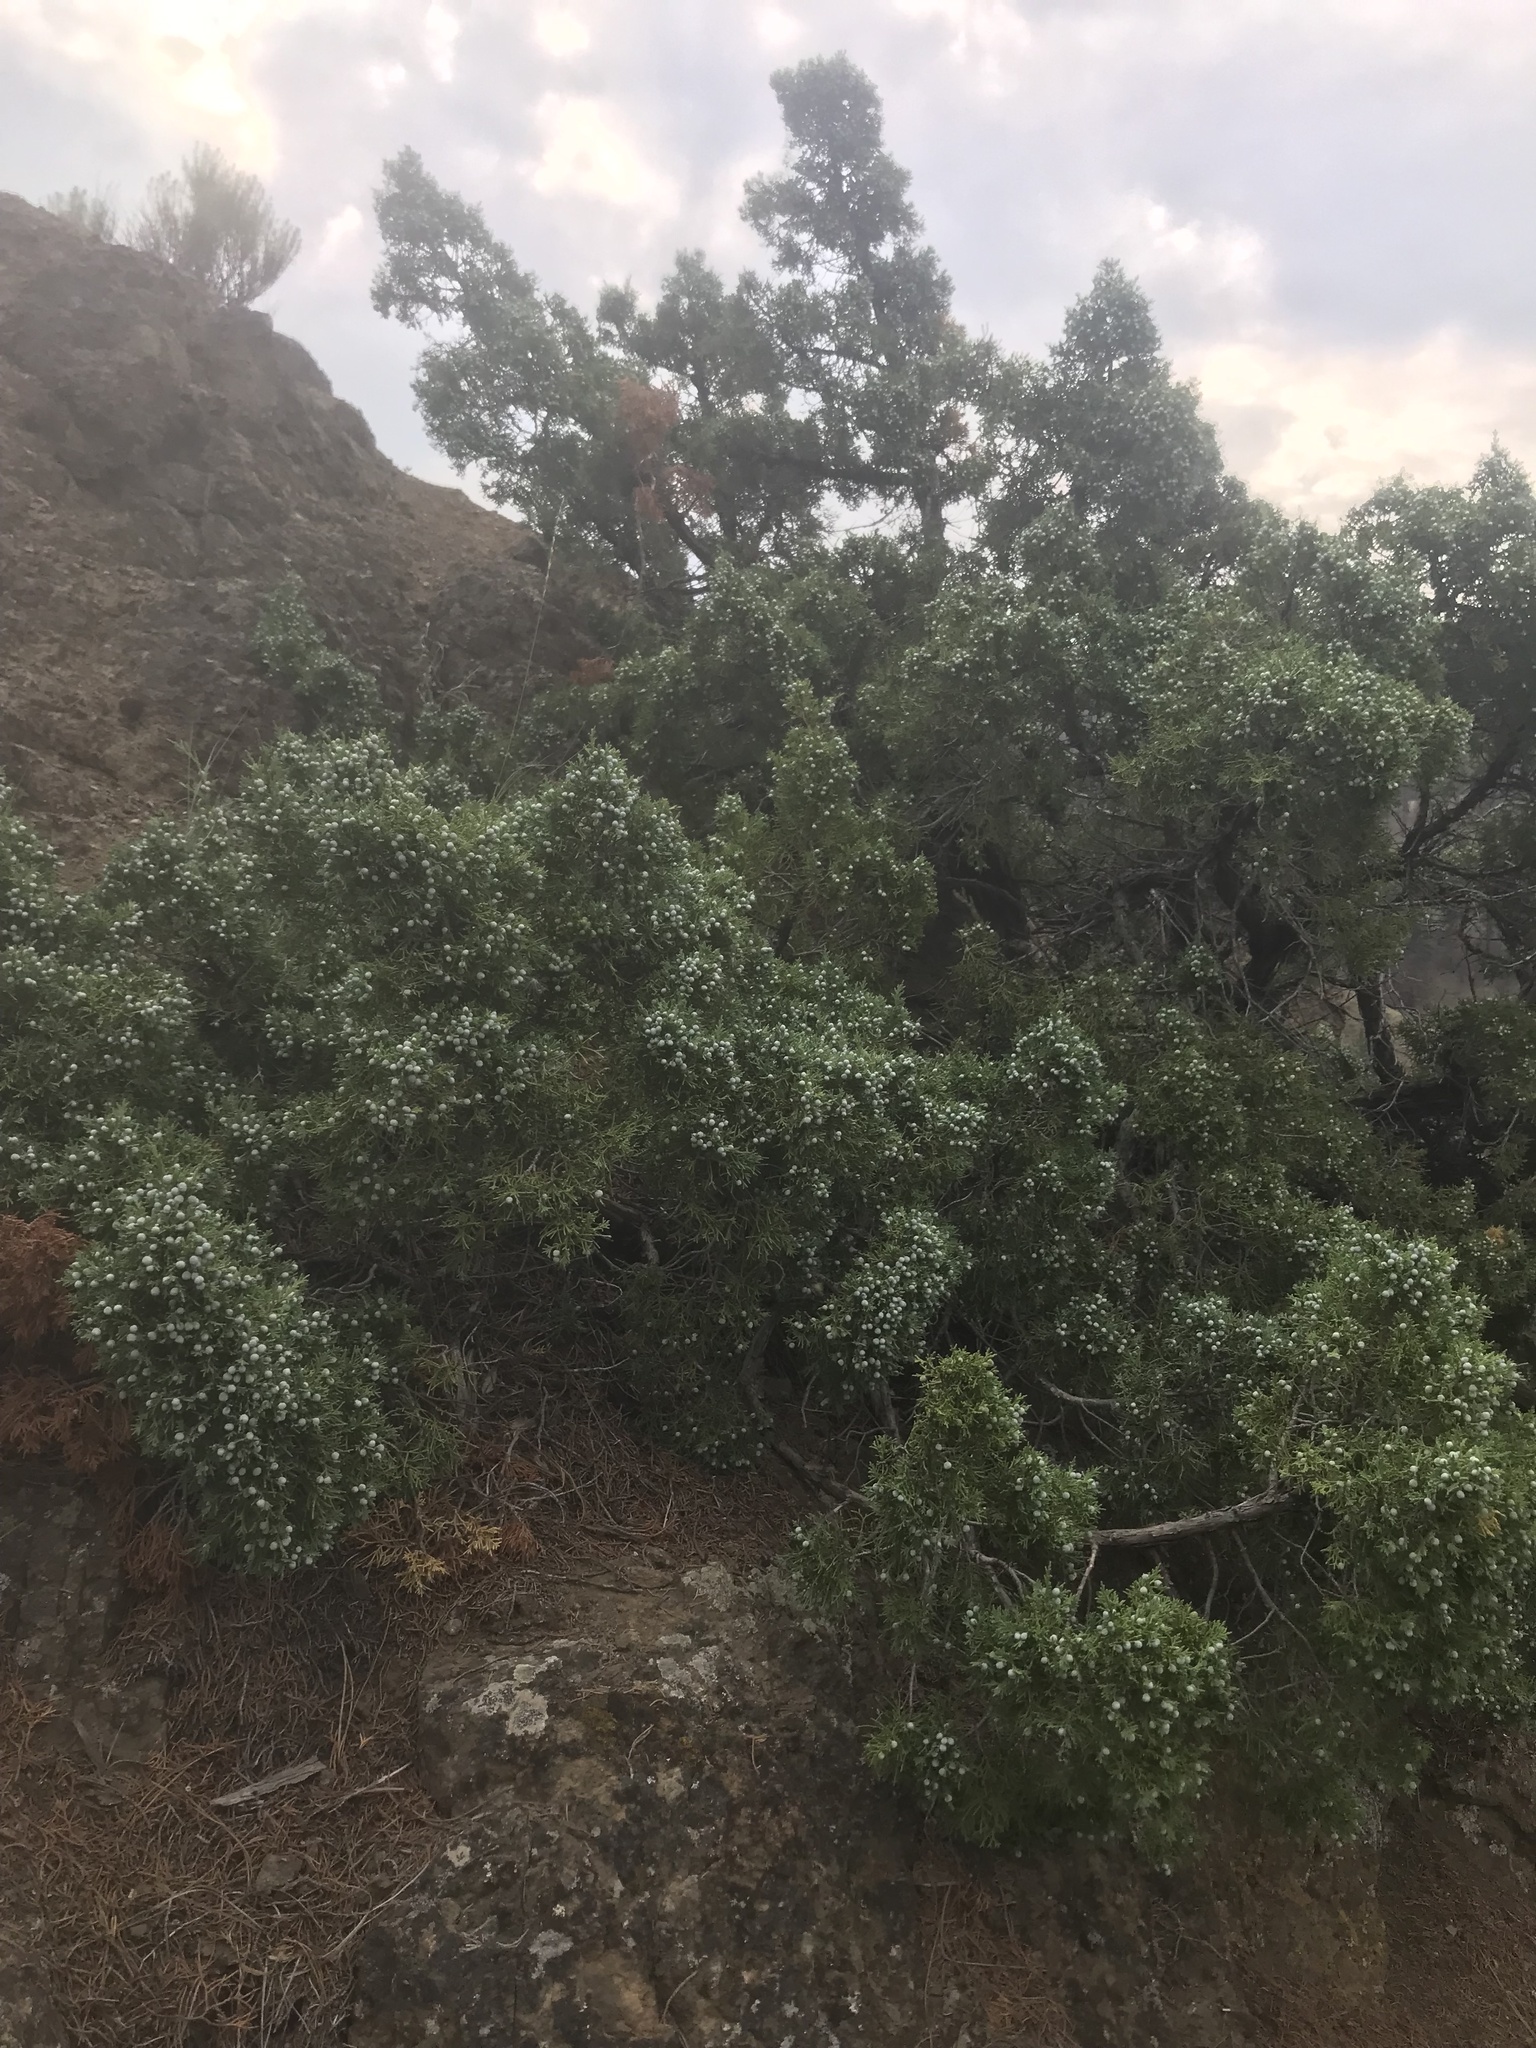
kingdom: Plantae
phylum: Tracheophyta
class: Pinopsida
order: Pinales
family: Cupressaceae
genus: Juniperus
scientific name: Juniperus scopulorum
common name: Rocky mountain juniper
